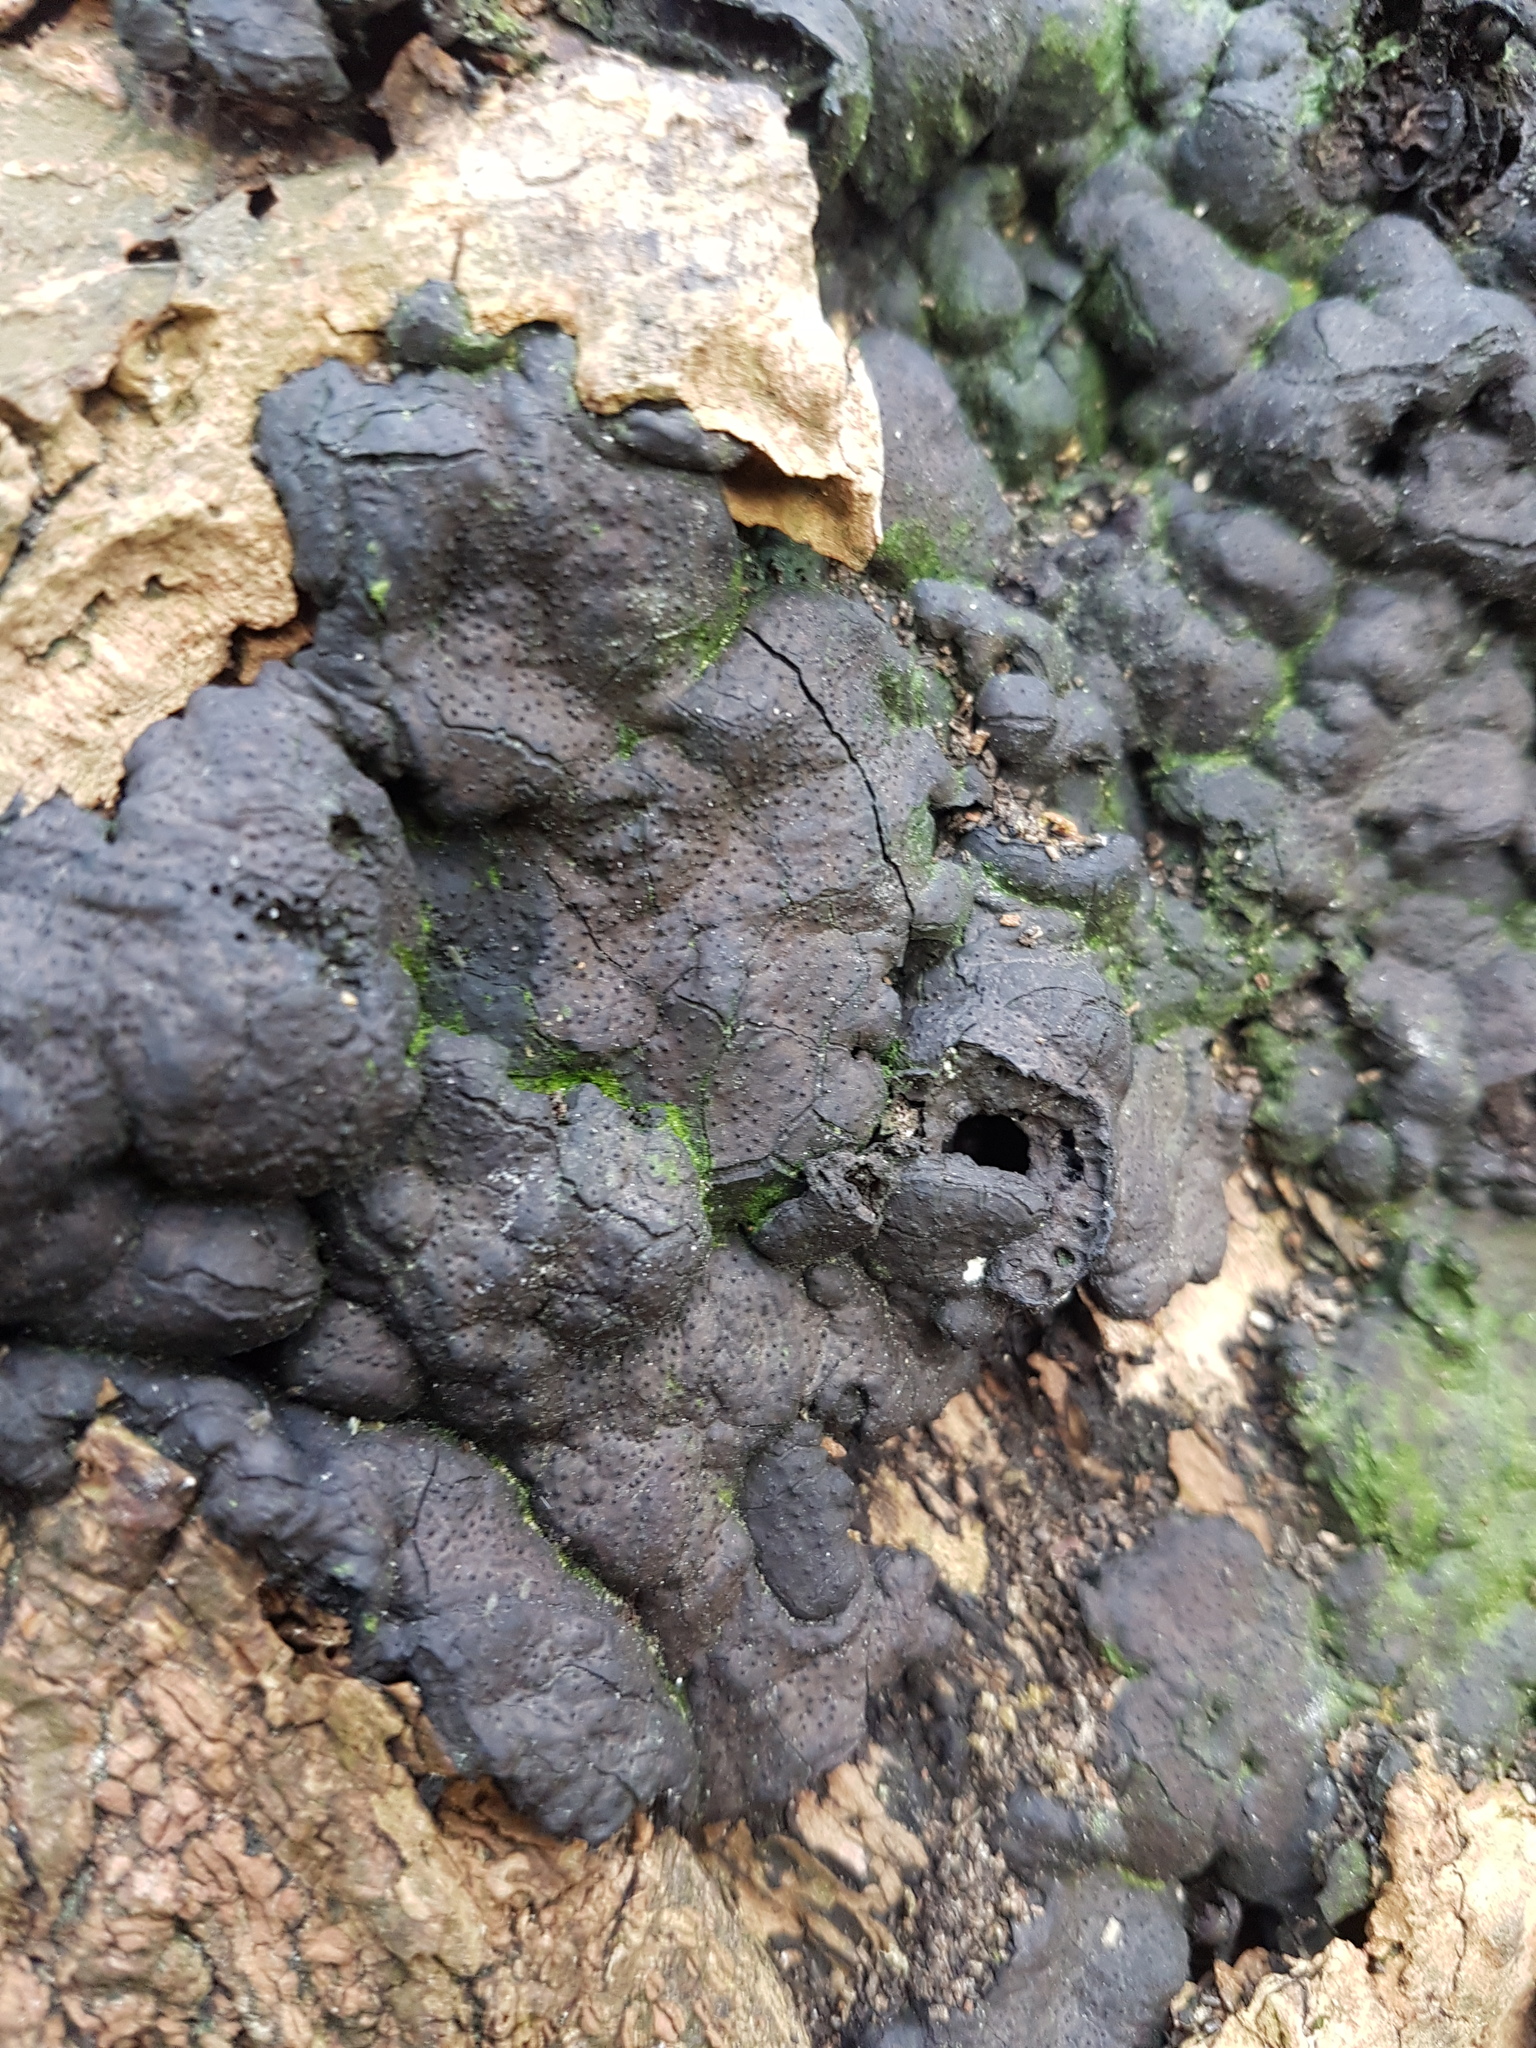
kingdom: Fungi
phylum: Ascomycota
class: Sordariomycetes
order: Xylariales
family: Xylariaceae
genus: Kretzschmaria
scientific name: Kretzschmaria deusta
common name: Brittle cinder
